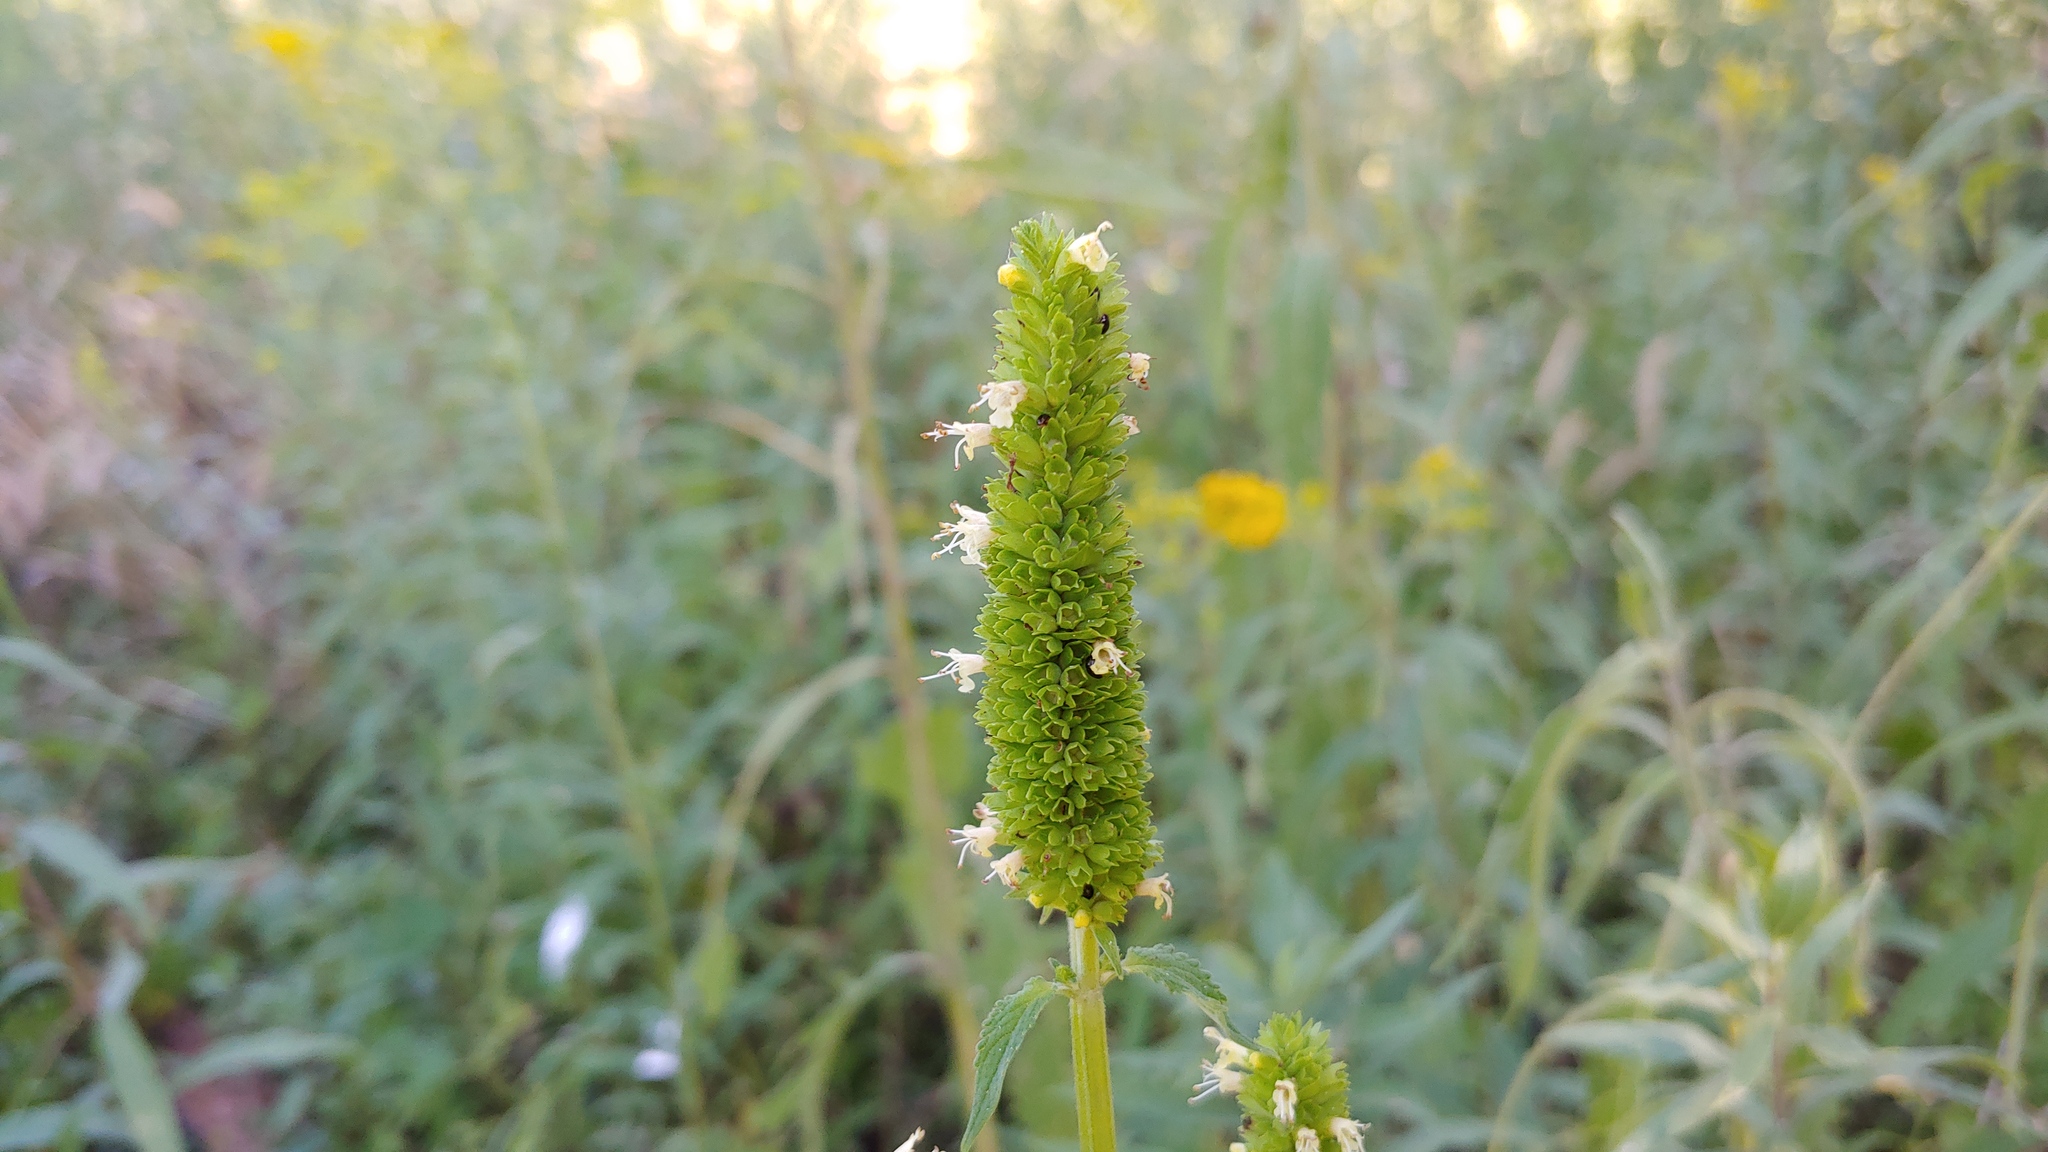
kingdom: Plantae
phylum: Tracheophyta
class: Magnoliopsida
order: Lamiales
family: Lamiaceae
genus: Agastache
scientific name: Agastache nepetoides
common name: Catnip giant hyssop
